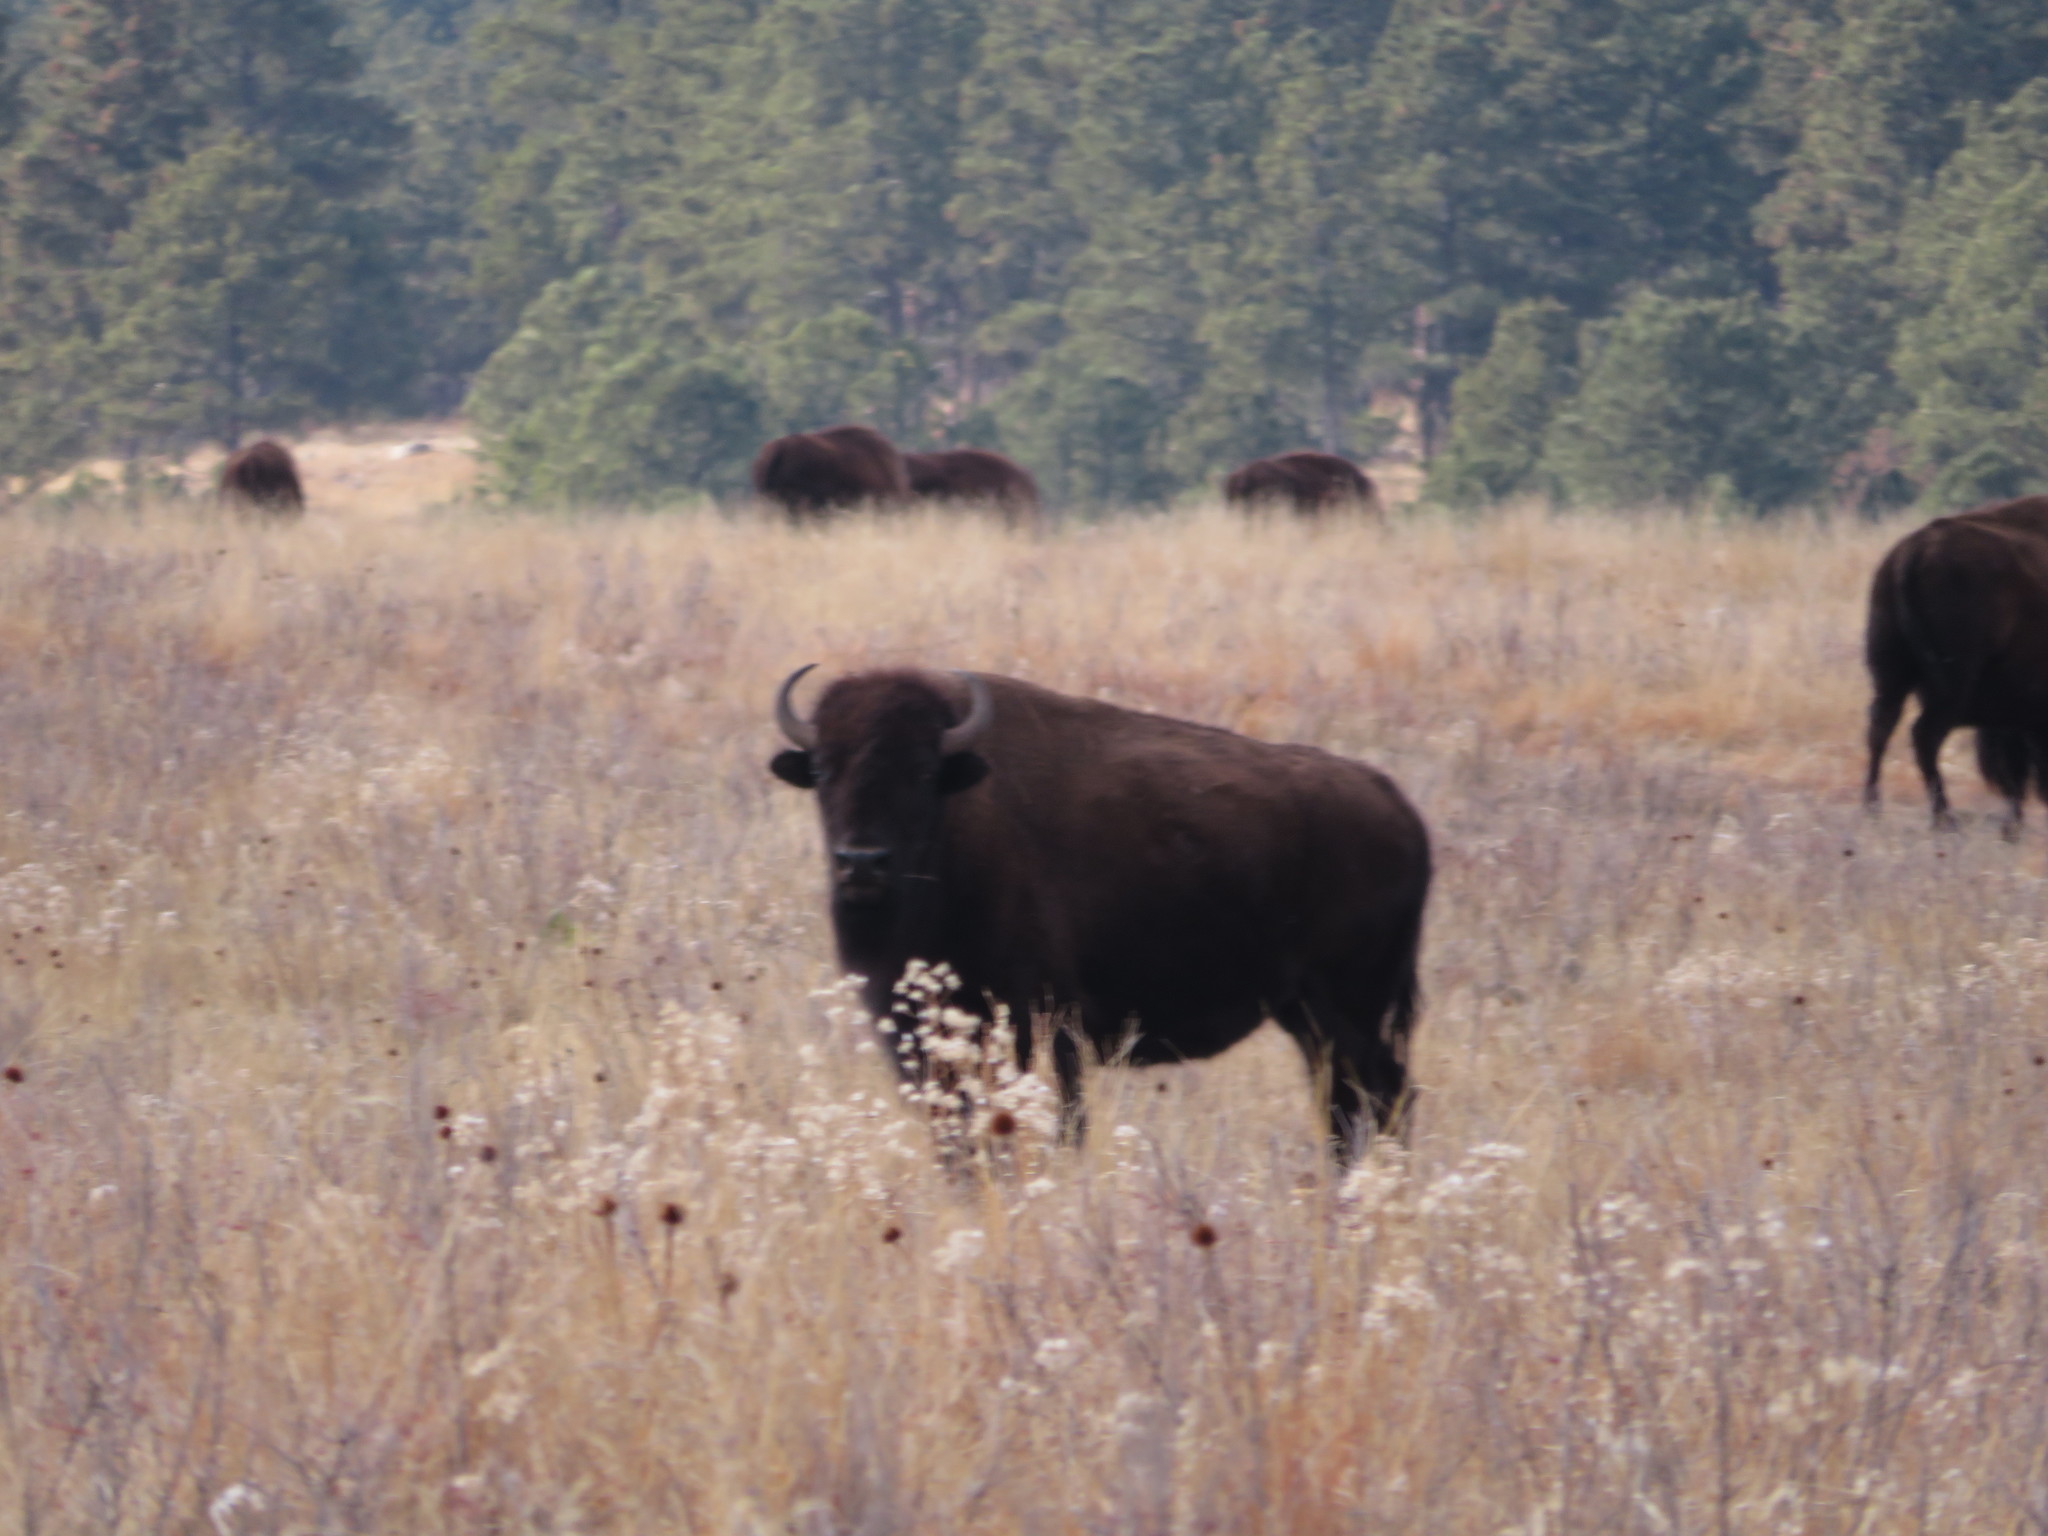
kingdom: Animalia
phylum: Chordata
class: Mammalia
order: Artiodactyla
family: Bovidae
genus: Bison
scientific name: Bison bison
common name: American bison
